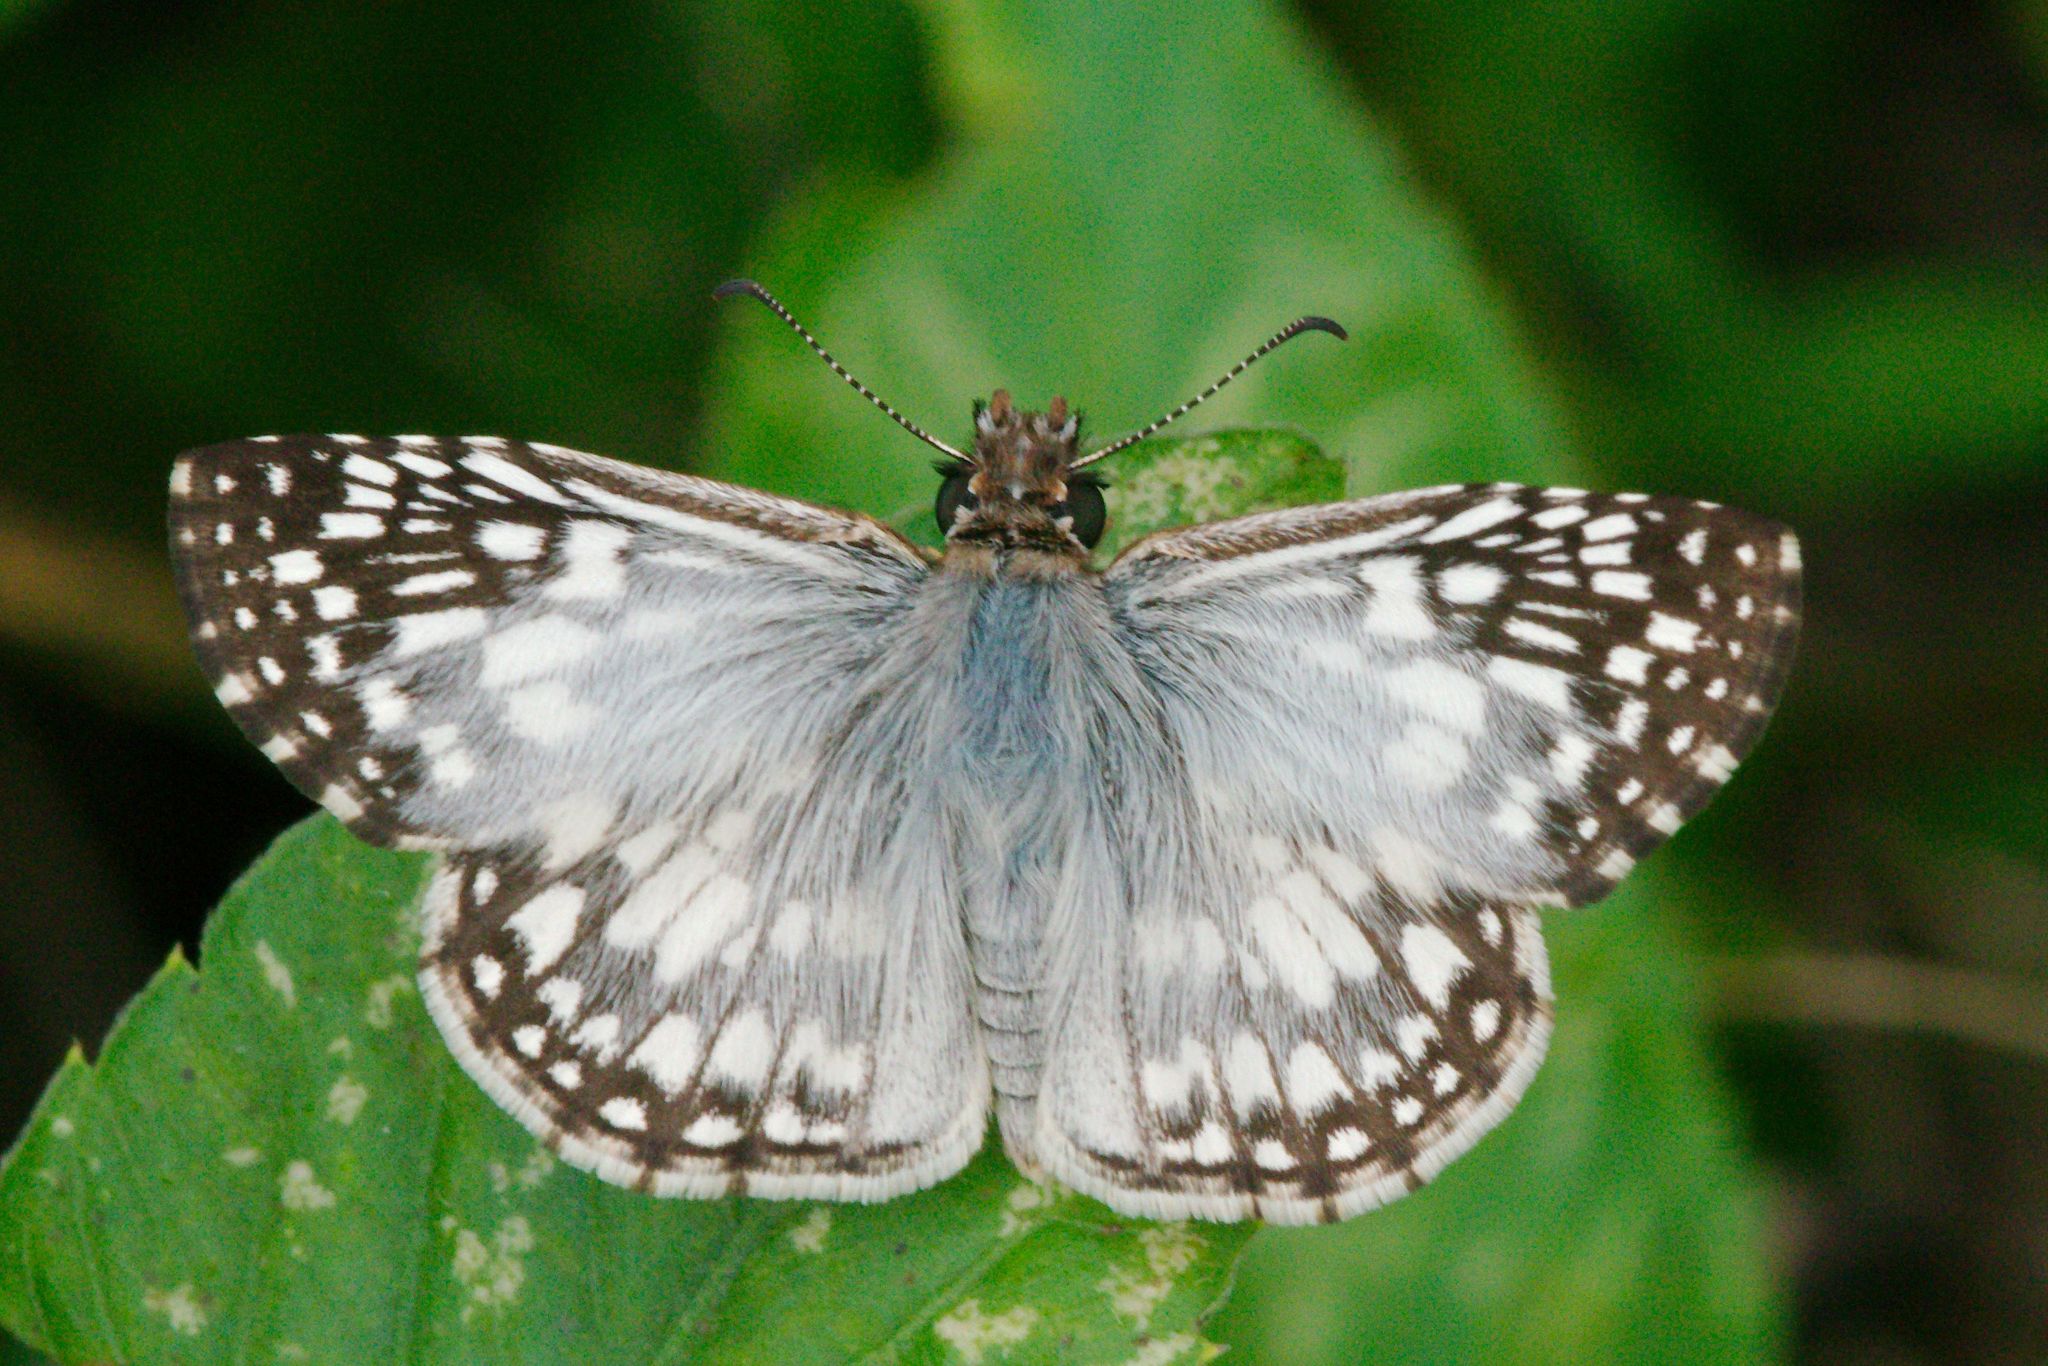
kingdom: Animalia
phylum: Arthropoda
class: Insecta
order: Lepidoptera
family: Hesperiidae
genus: Pyrgus
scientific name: Pyrgus oileus
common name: Tropical checkered-skipper
